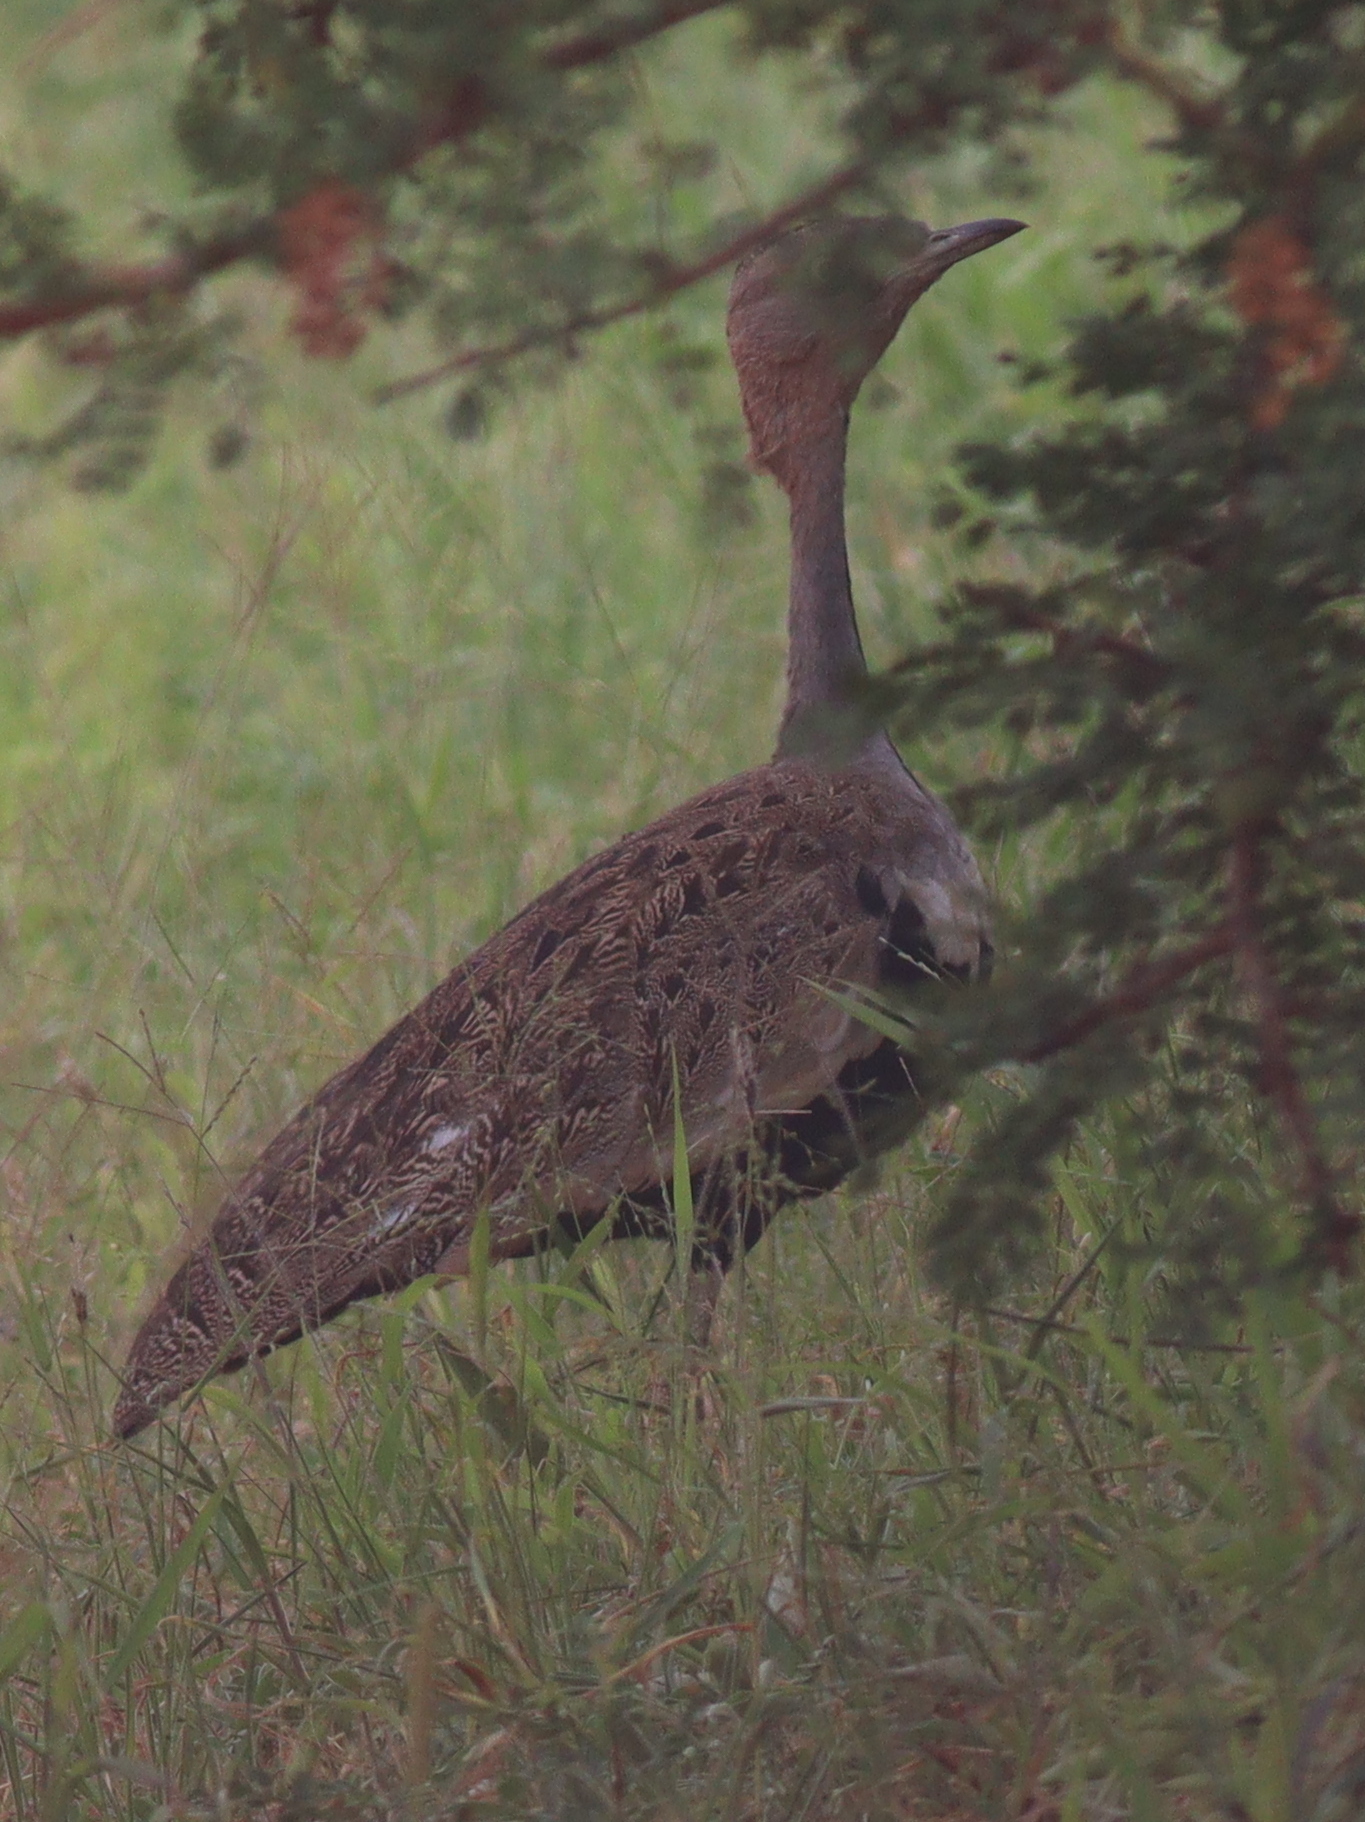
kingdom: Animalia
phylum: Chordata
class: Aves
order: Otidiformes
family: Otididae
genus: Lophotis
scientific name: Lophotis gindiana
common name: Buff-crested bustard
